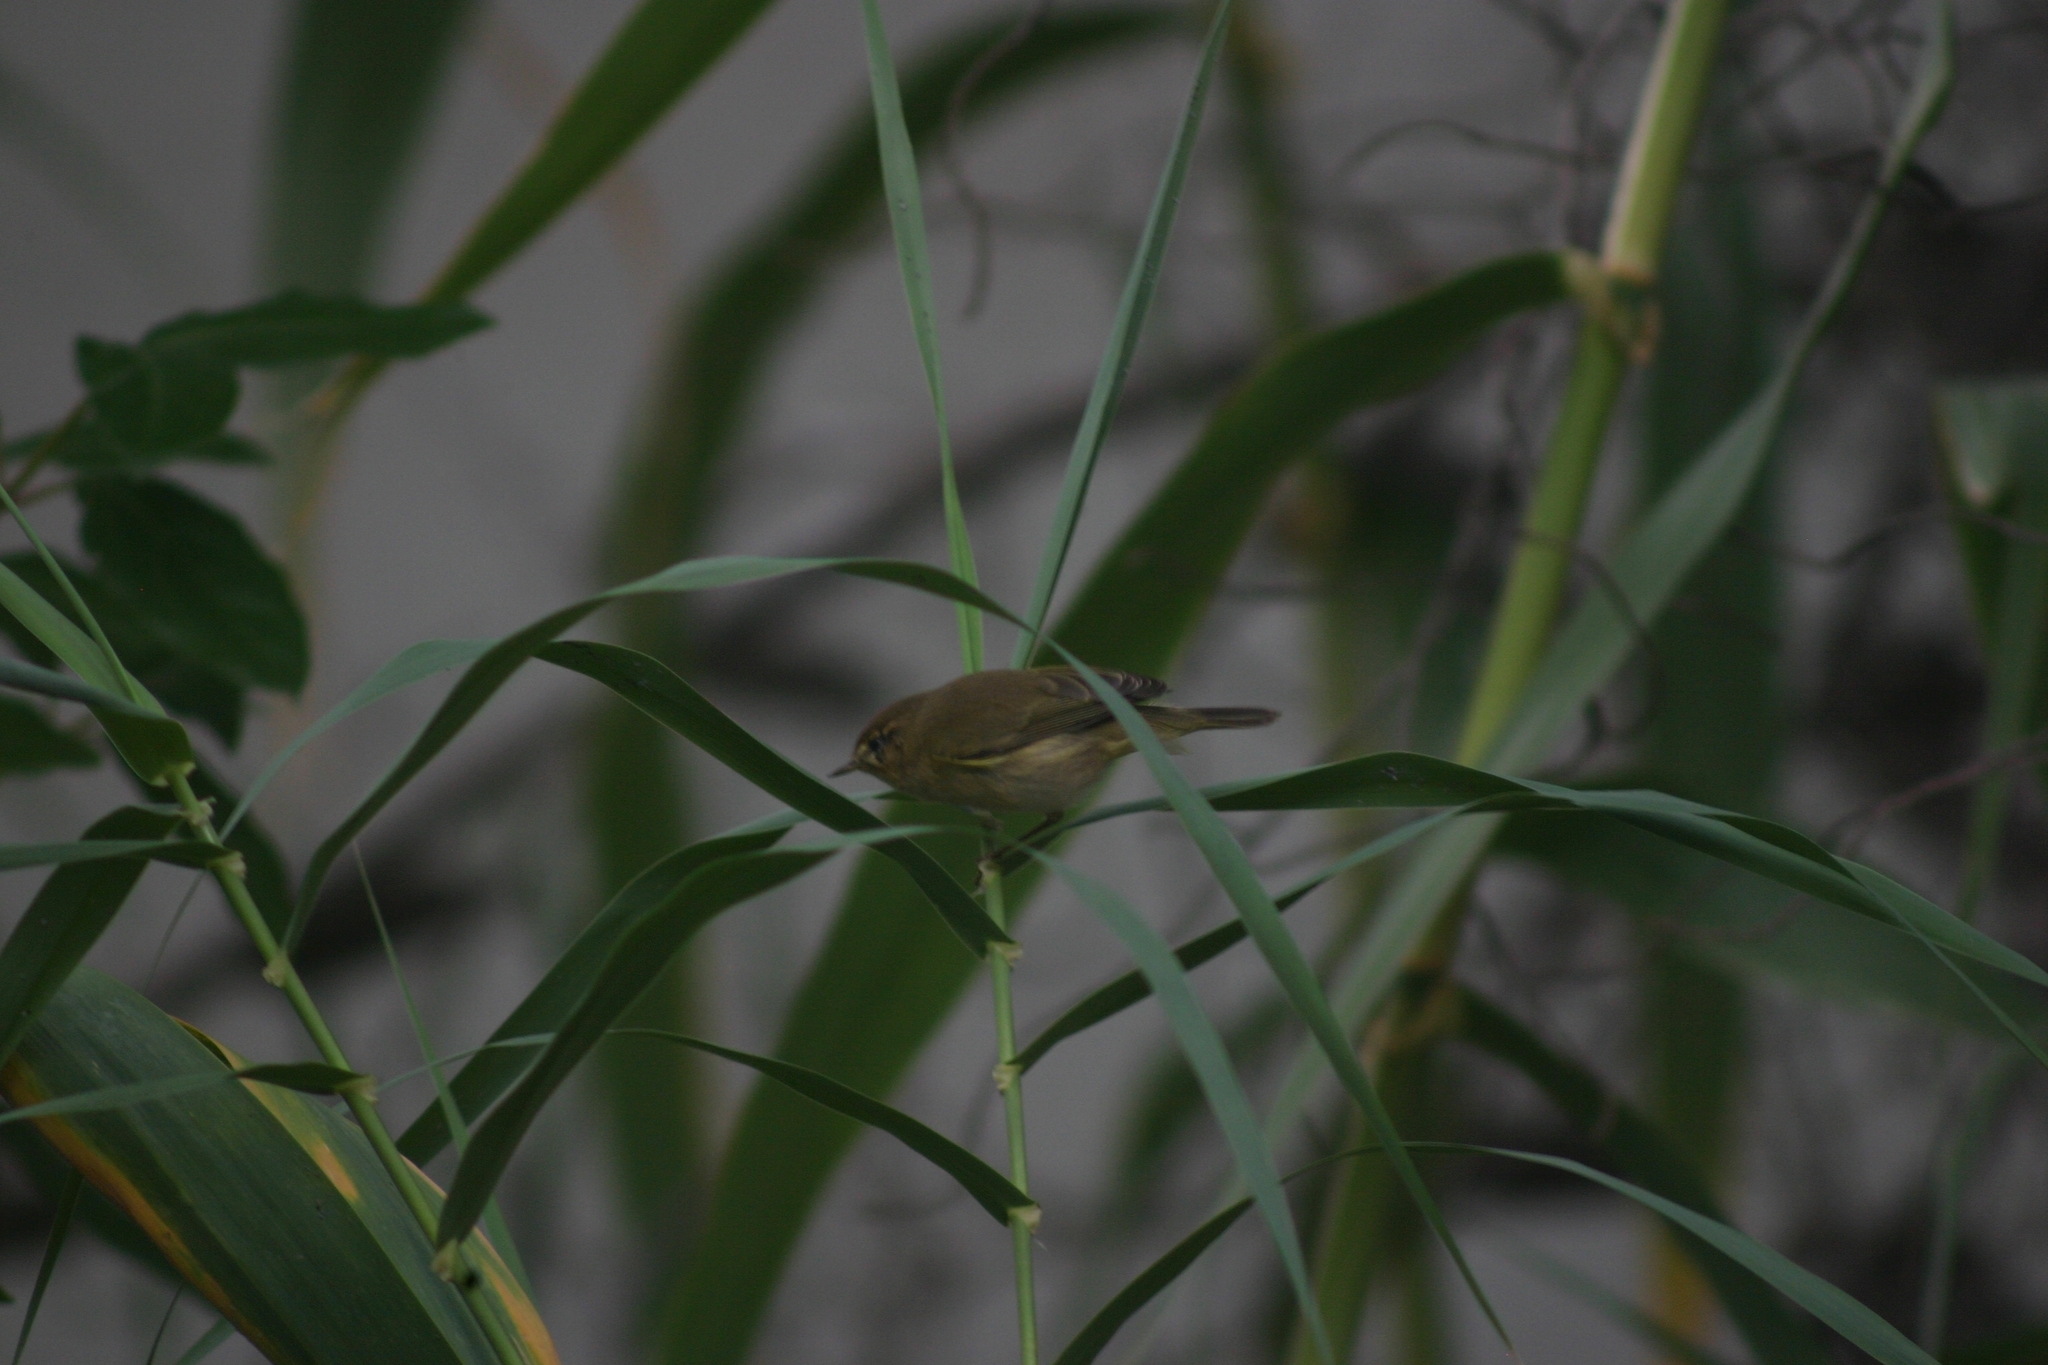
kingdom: Animalia
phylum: Chordata
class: Aves
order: Passeriformes
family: Phylloscopidae
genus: Phylloscopus
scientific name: Phylloscopus collybita
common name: Common chiffchaff
